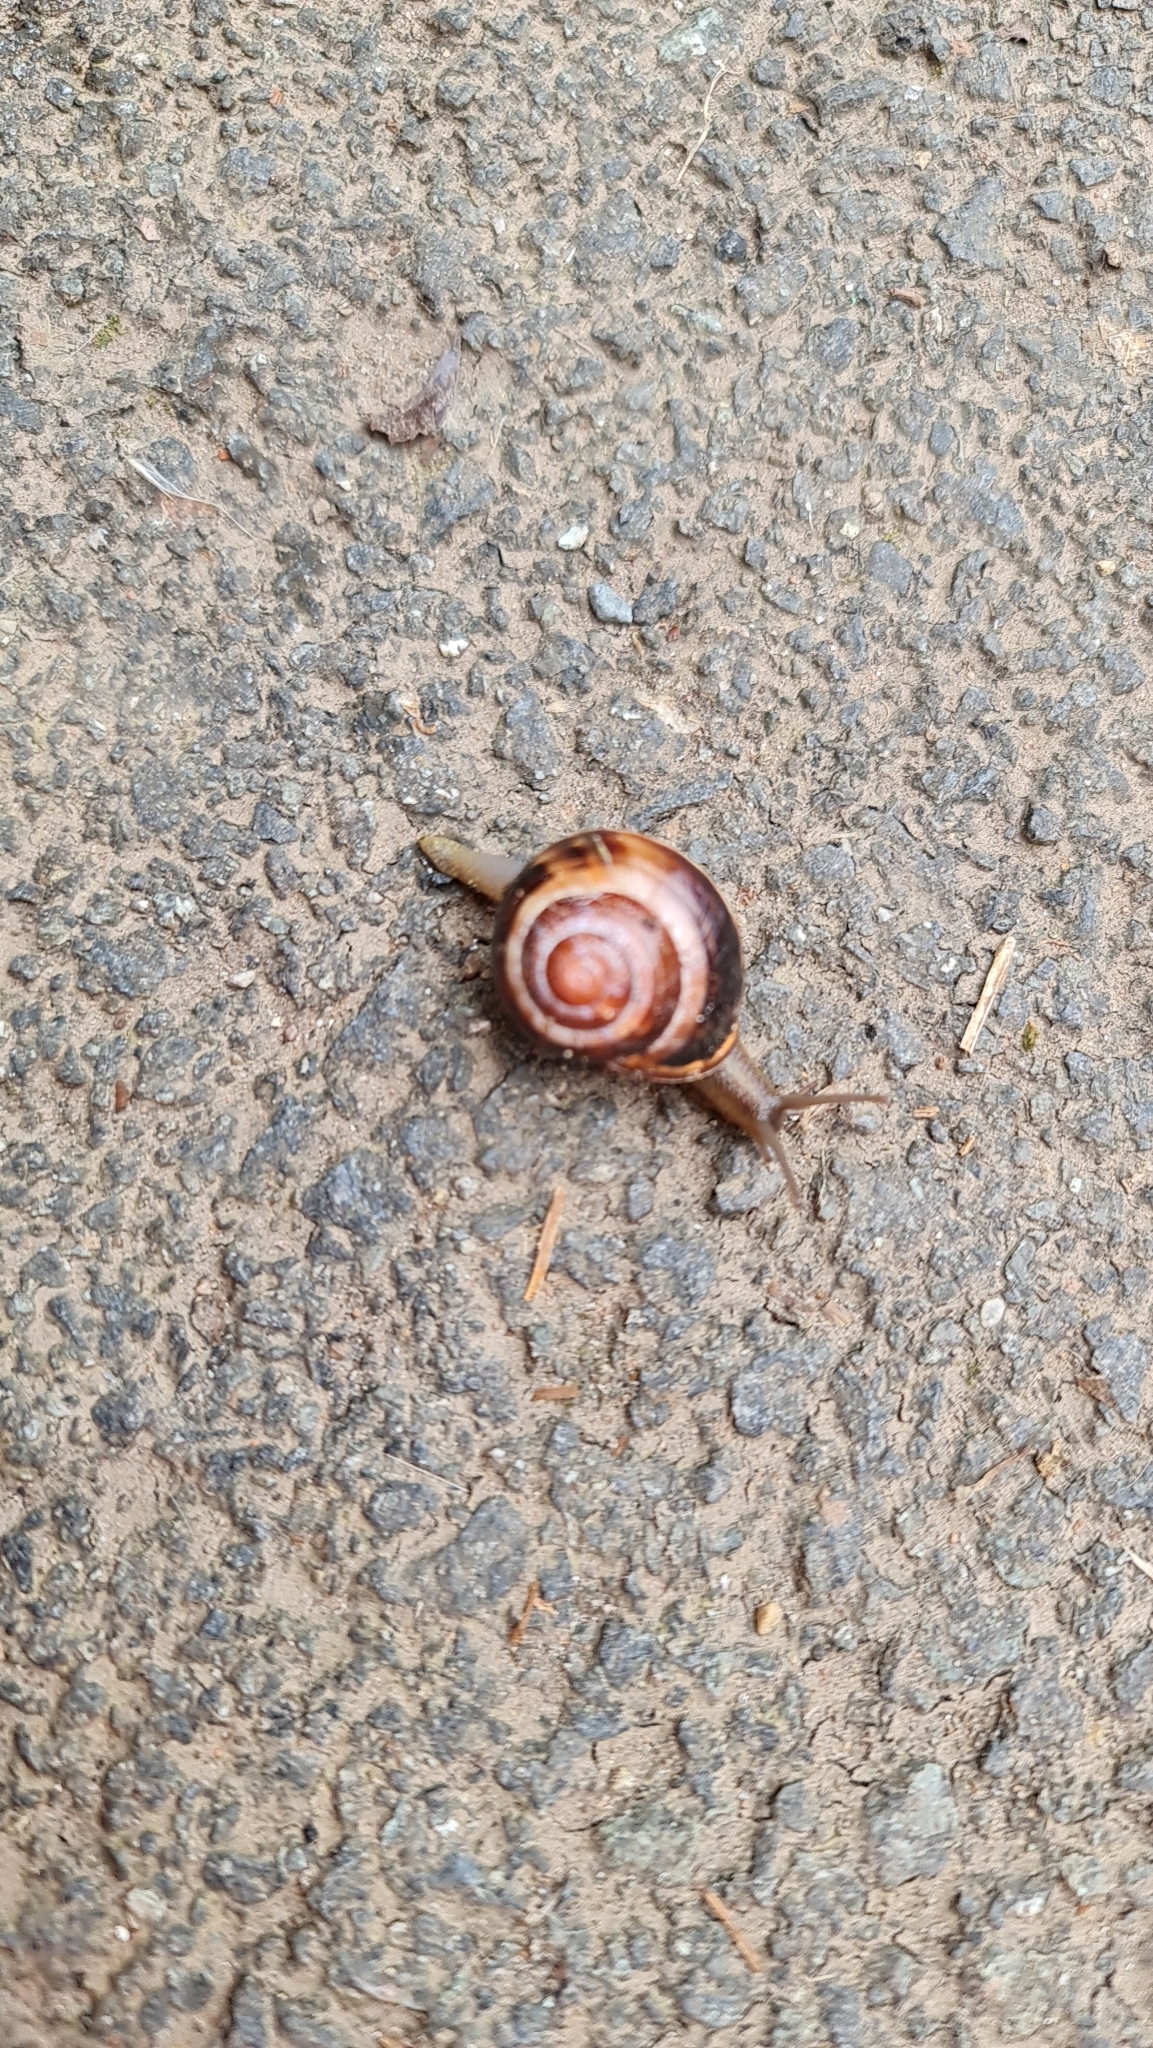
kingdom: Animalia
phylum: Mollusca
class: Gastropoda
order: Stylommatophora
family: Helicidae
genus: Cepaea
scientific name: Cepaea nemoralis
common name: Grovesnail
